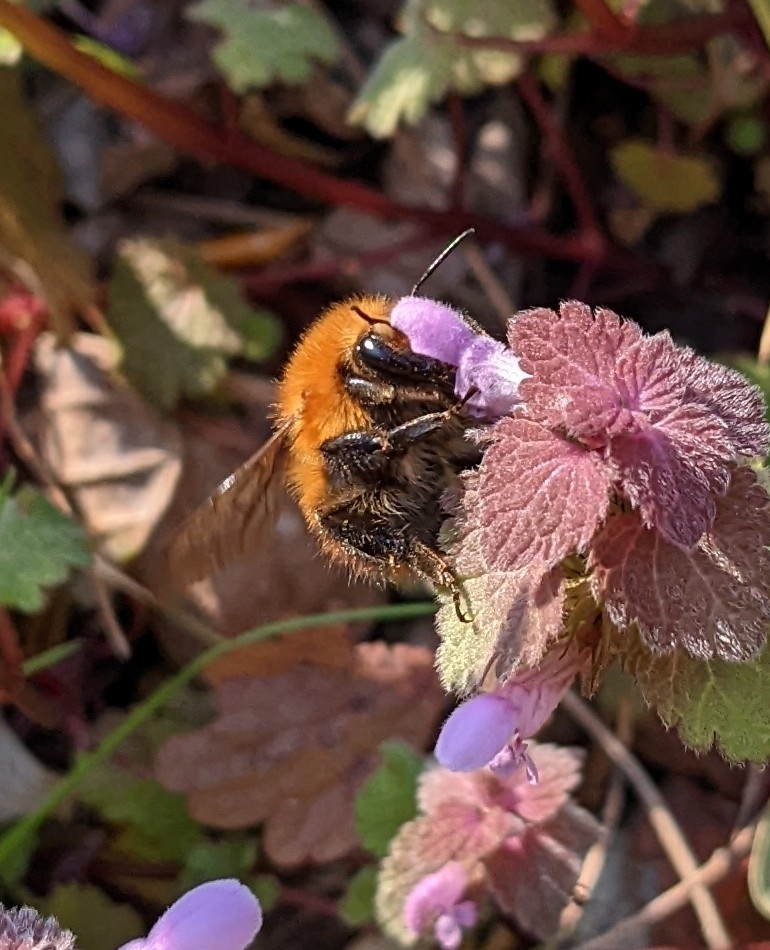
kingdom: Animalia
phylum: Arthropoda
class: Insecta
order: Hymenoptera
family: Apidae
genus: Bombus
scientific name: Bombus pascuorum
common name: Common carder bee
